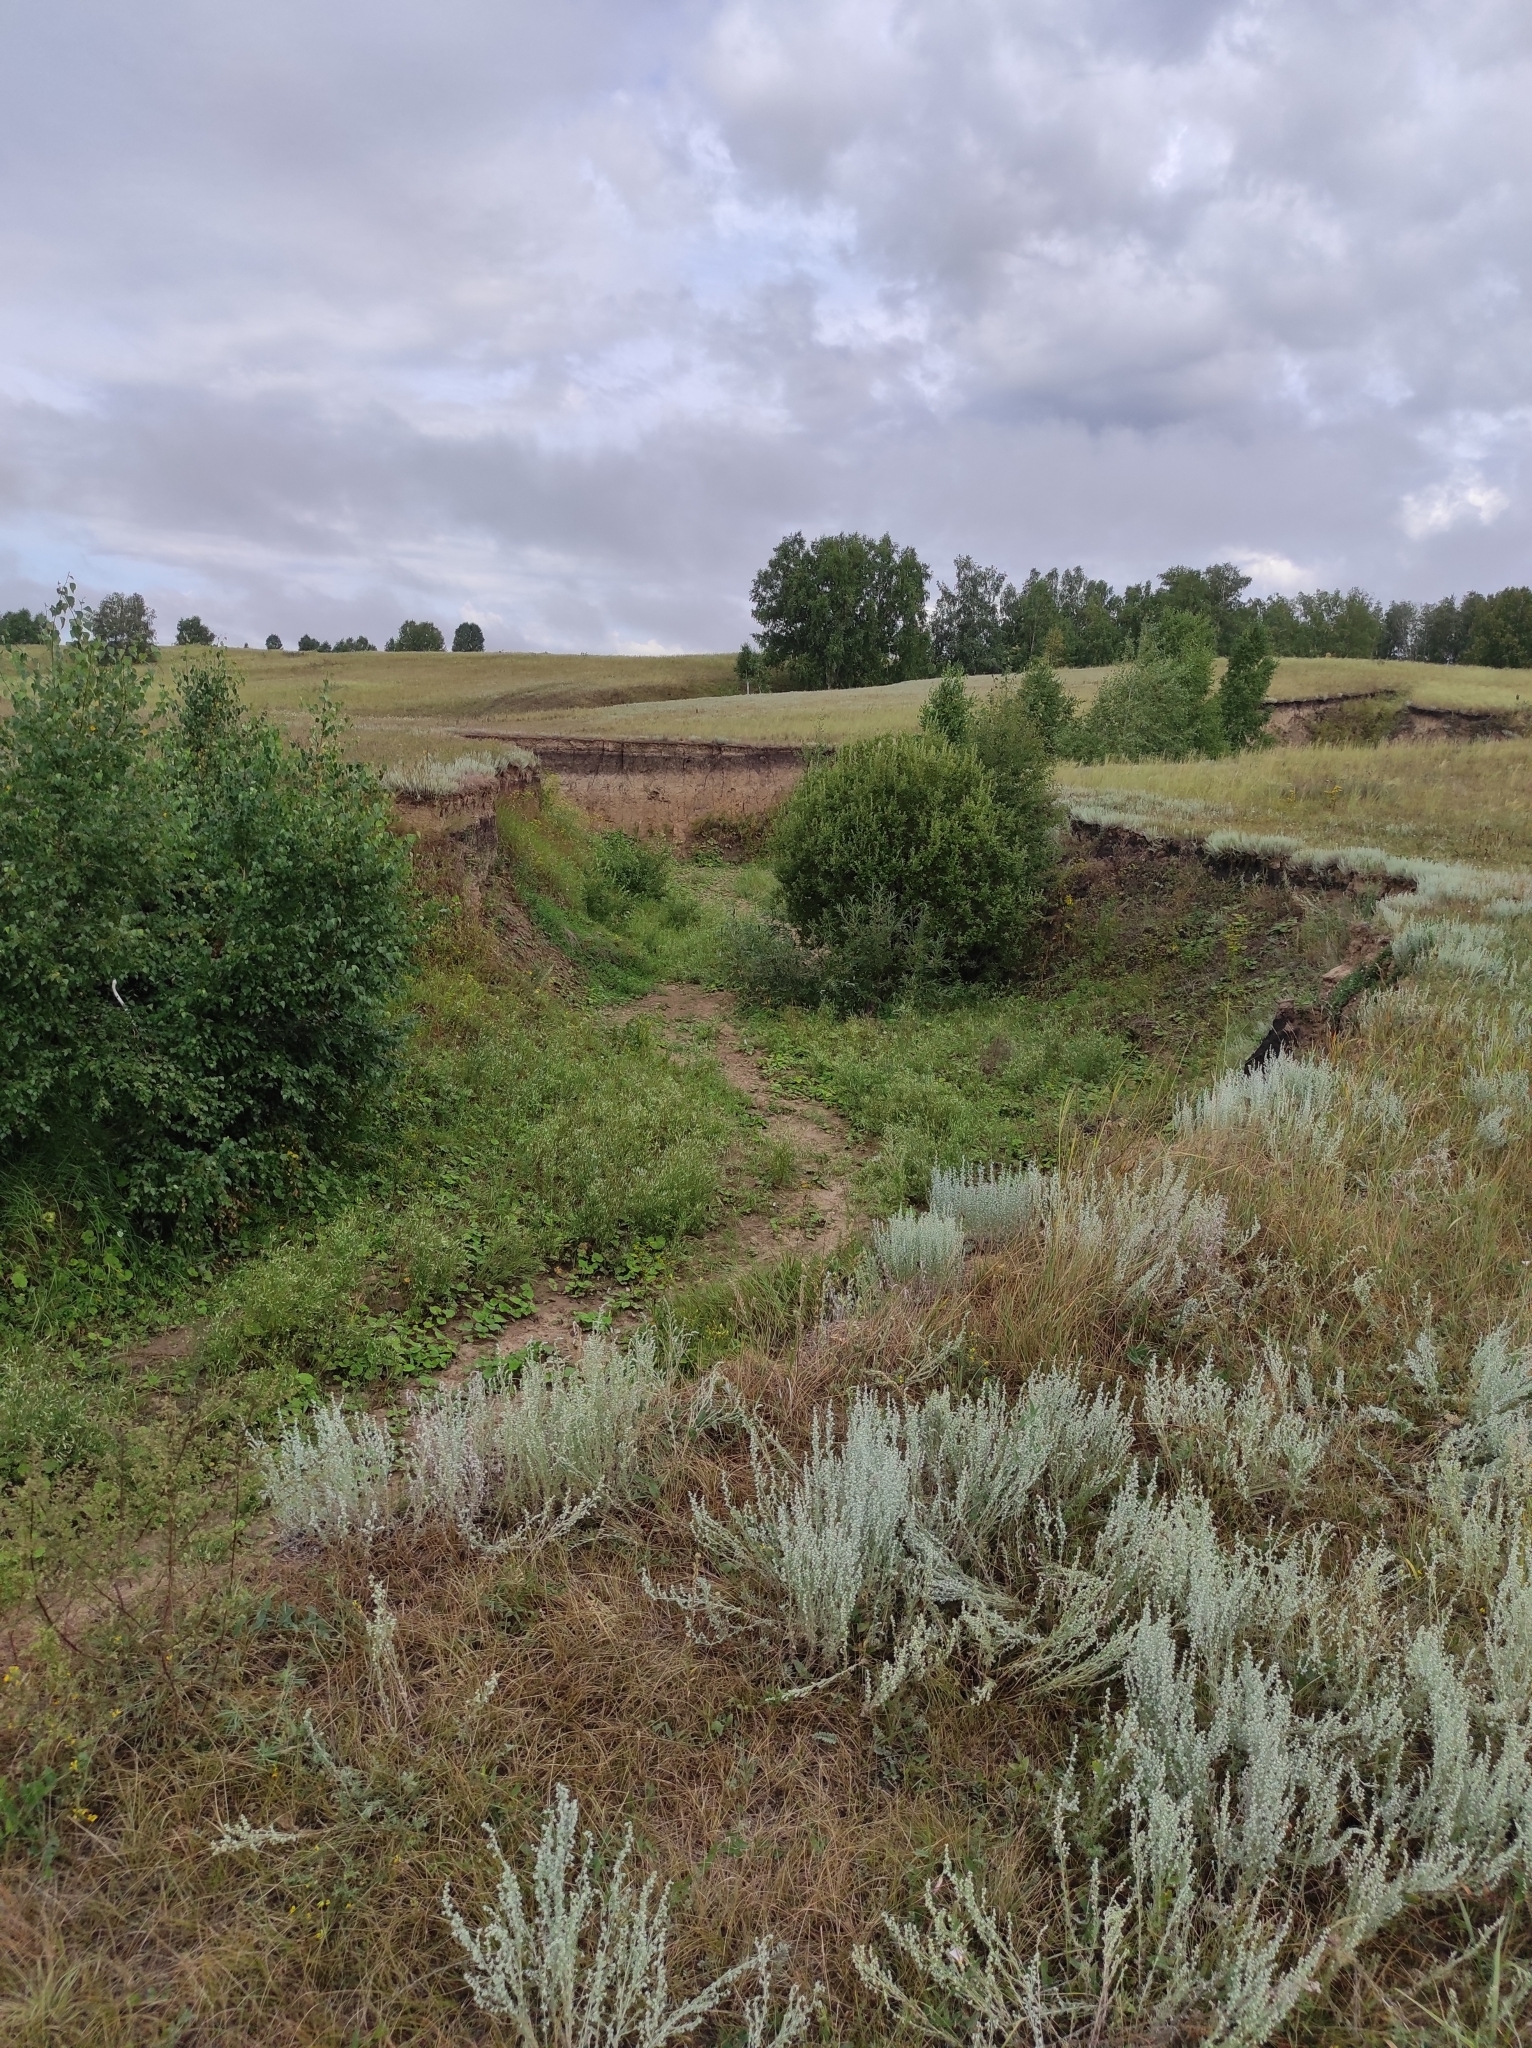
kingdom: Animalia
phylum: Chordata
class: Aves
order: Falconiformes
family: Falconidae
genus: Falco
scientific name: Falco peregrinus
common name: Peregrine falcon
